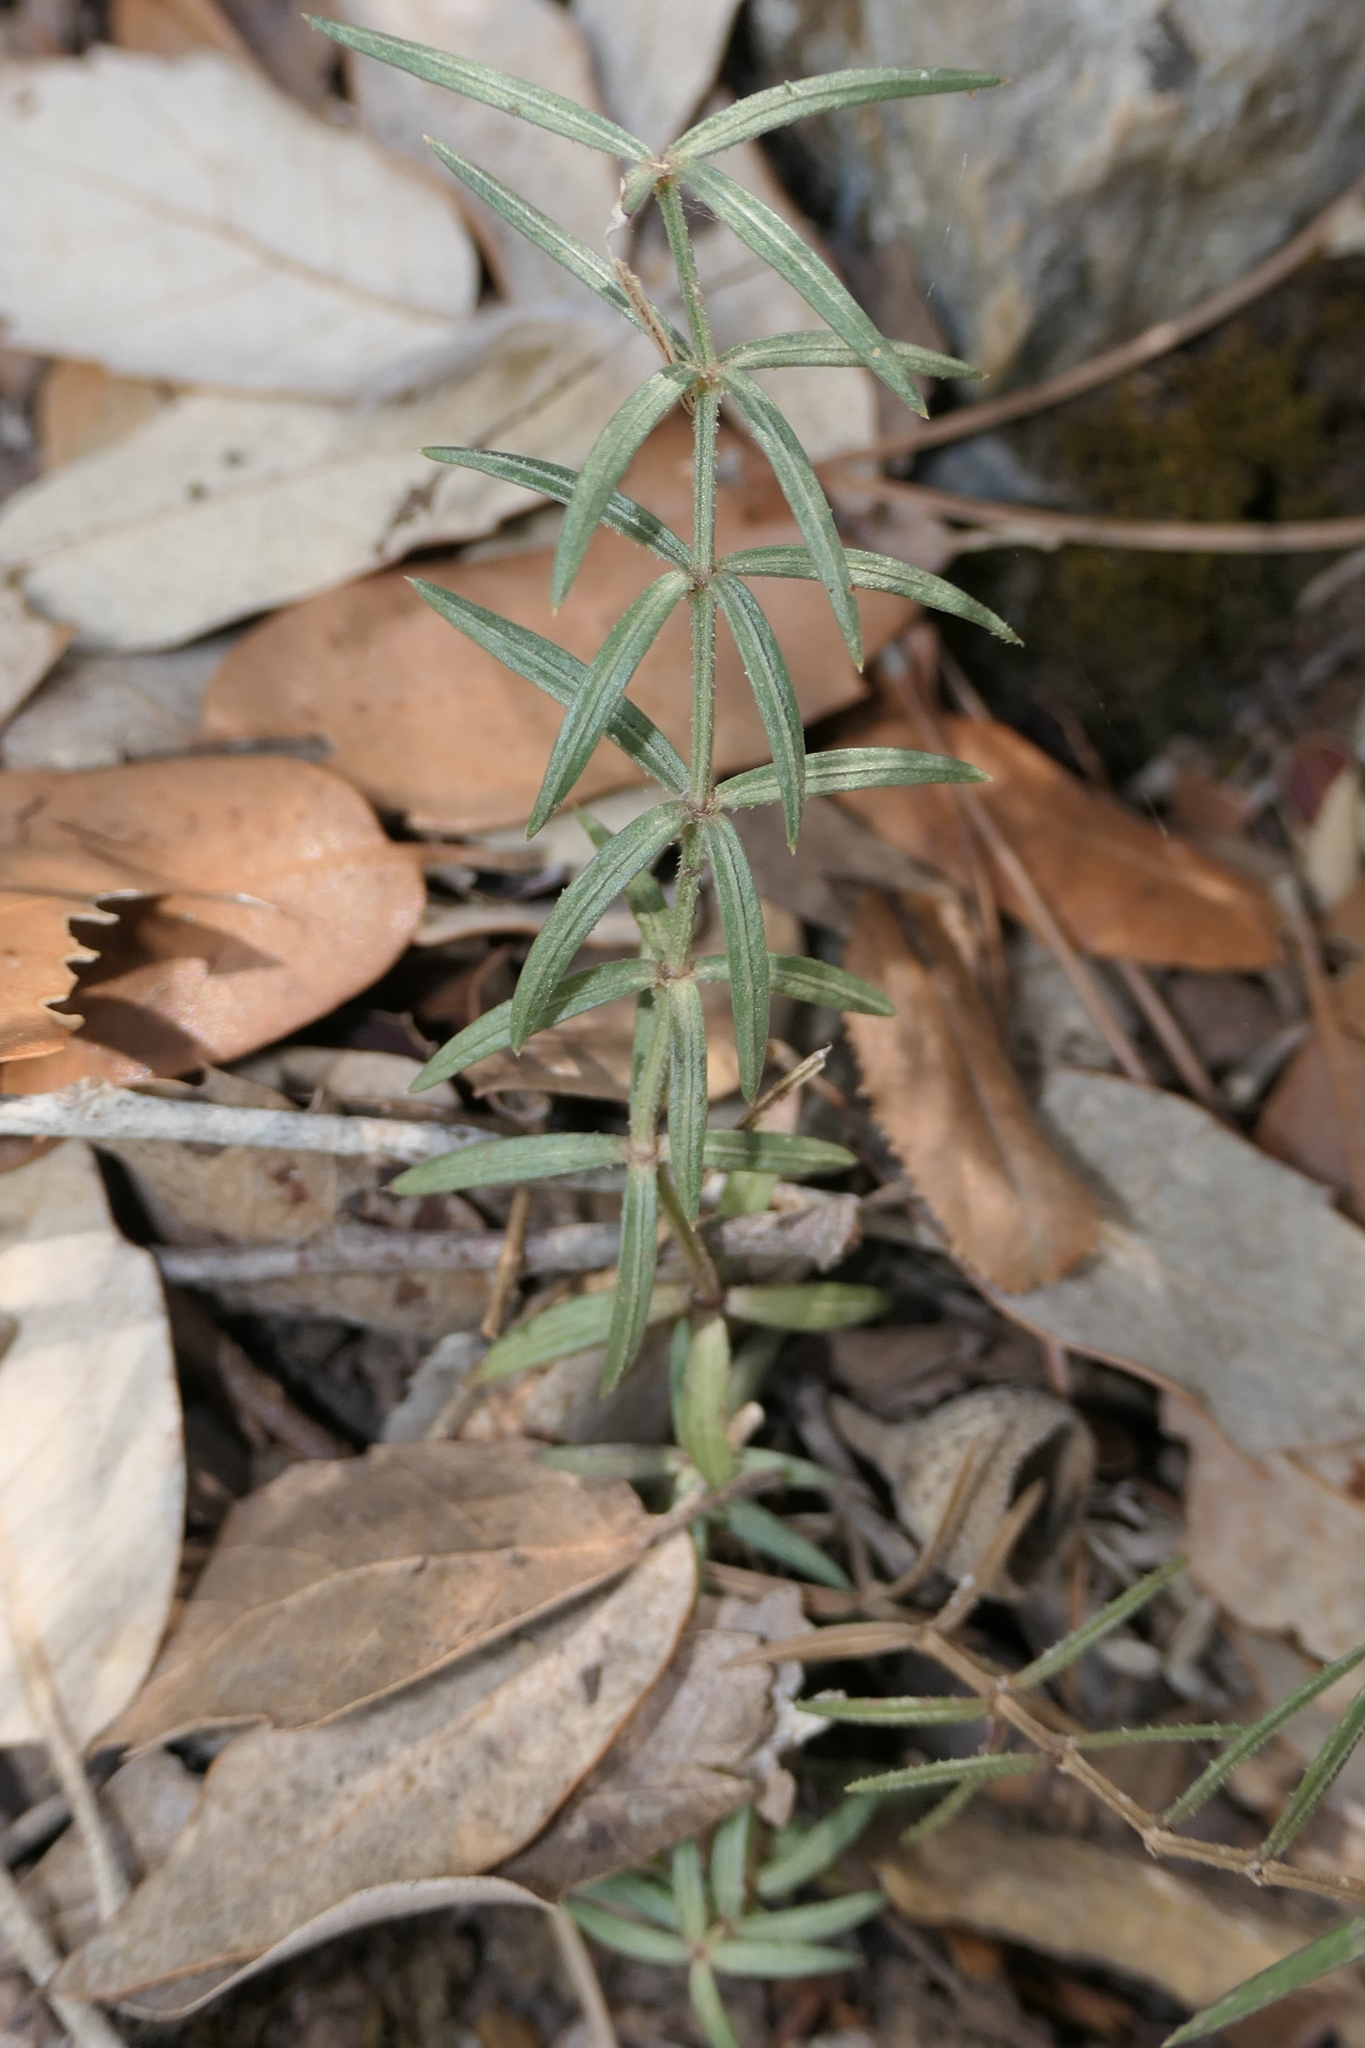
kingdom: Plantae
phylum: Tracheophyta
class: Magnoliopsida
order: Gentianales
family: Rubiaceae
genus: Rubia
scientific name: Rubia balearica
